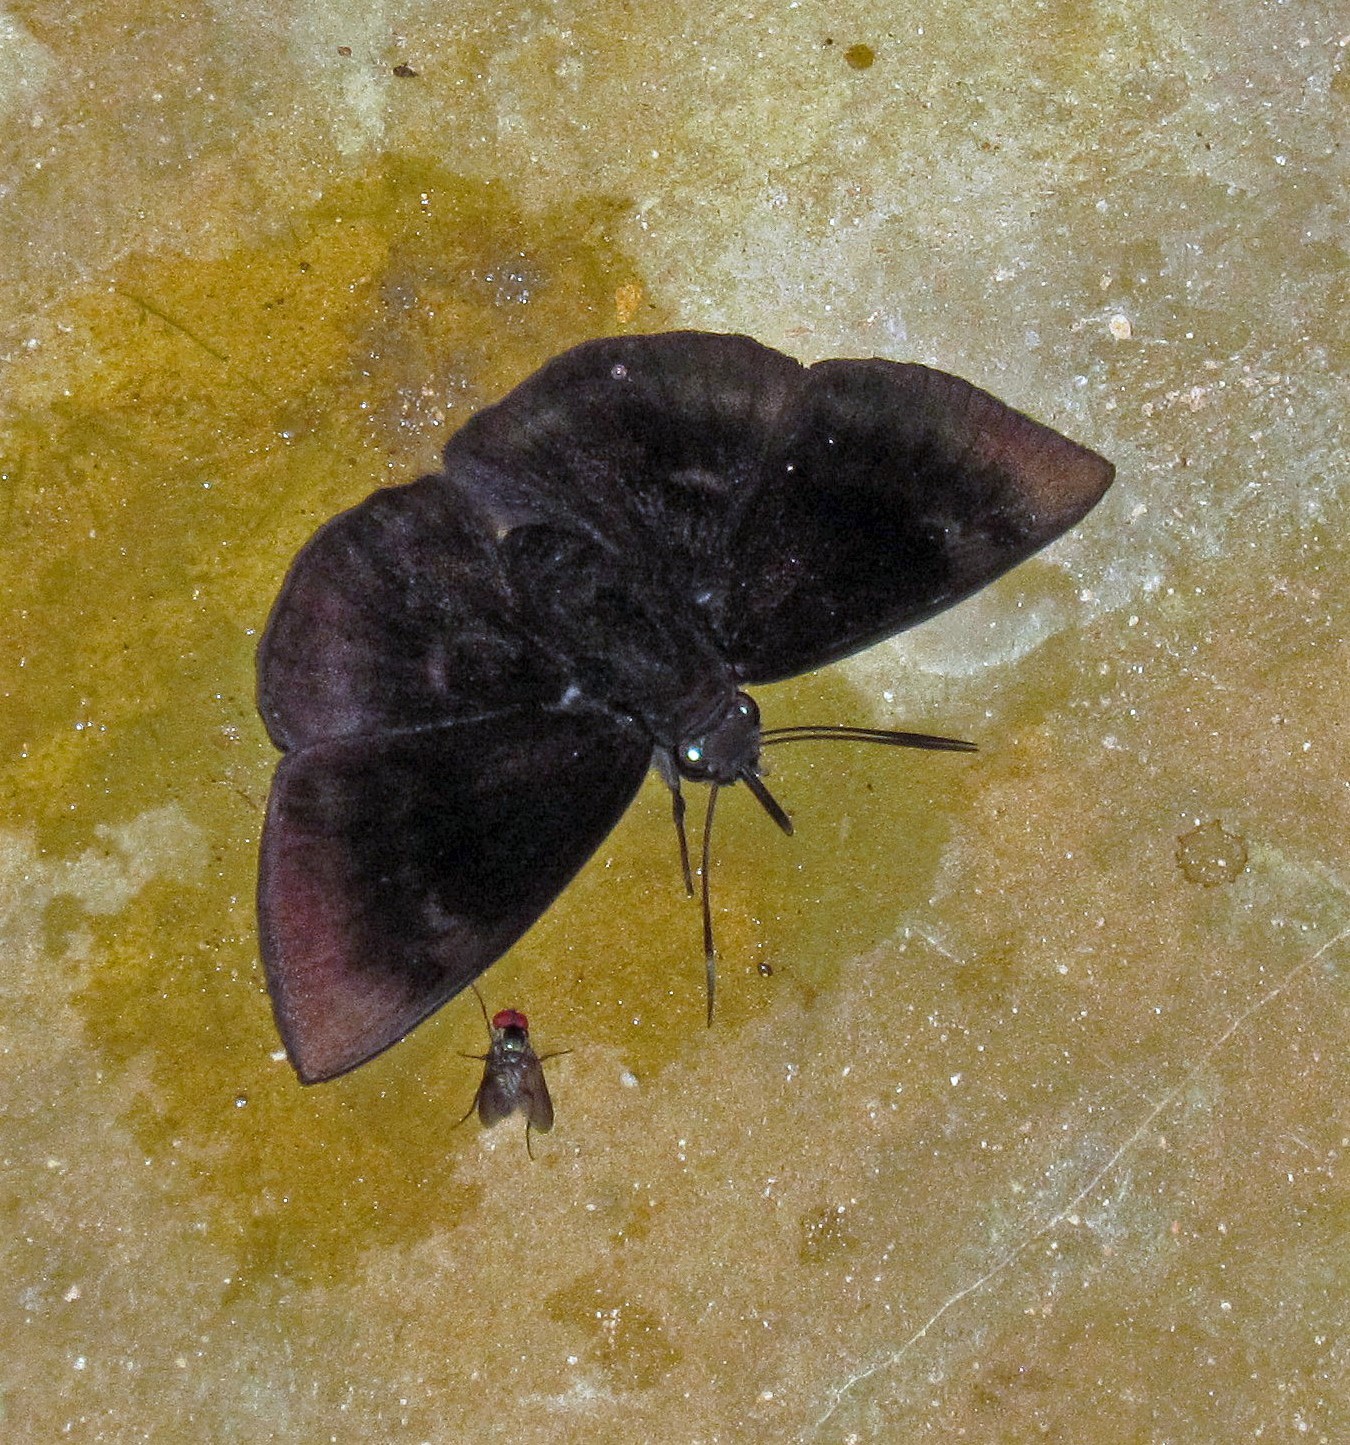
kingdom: Animalia
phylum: Arthropoda
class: Insecta
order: Lepidoptera
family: Hesperiidae
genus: Aethilla
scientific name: Aethilla echina
